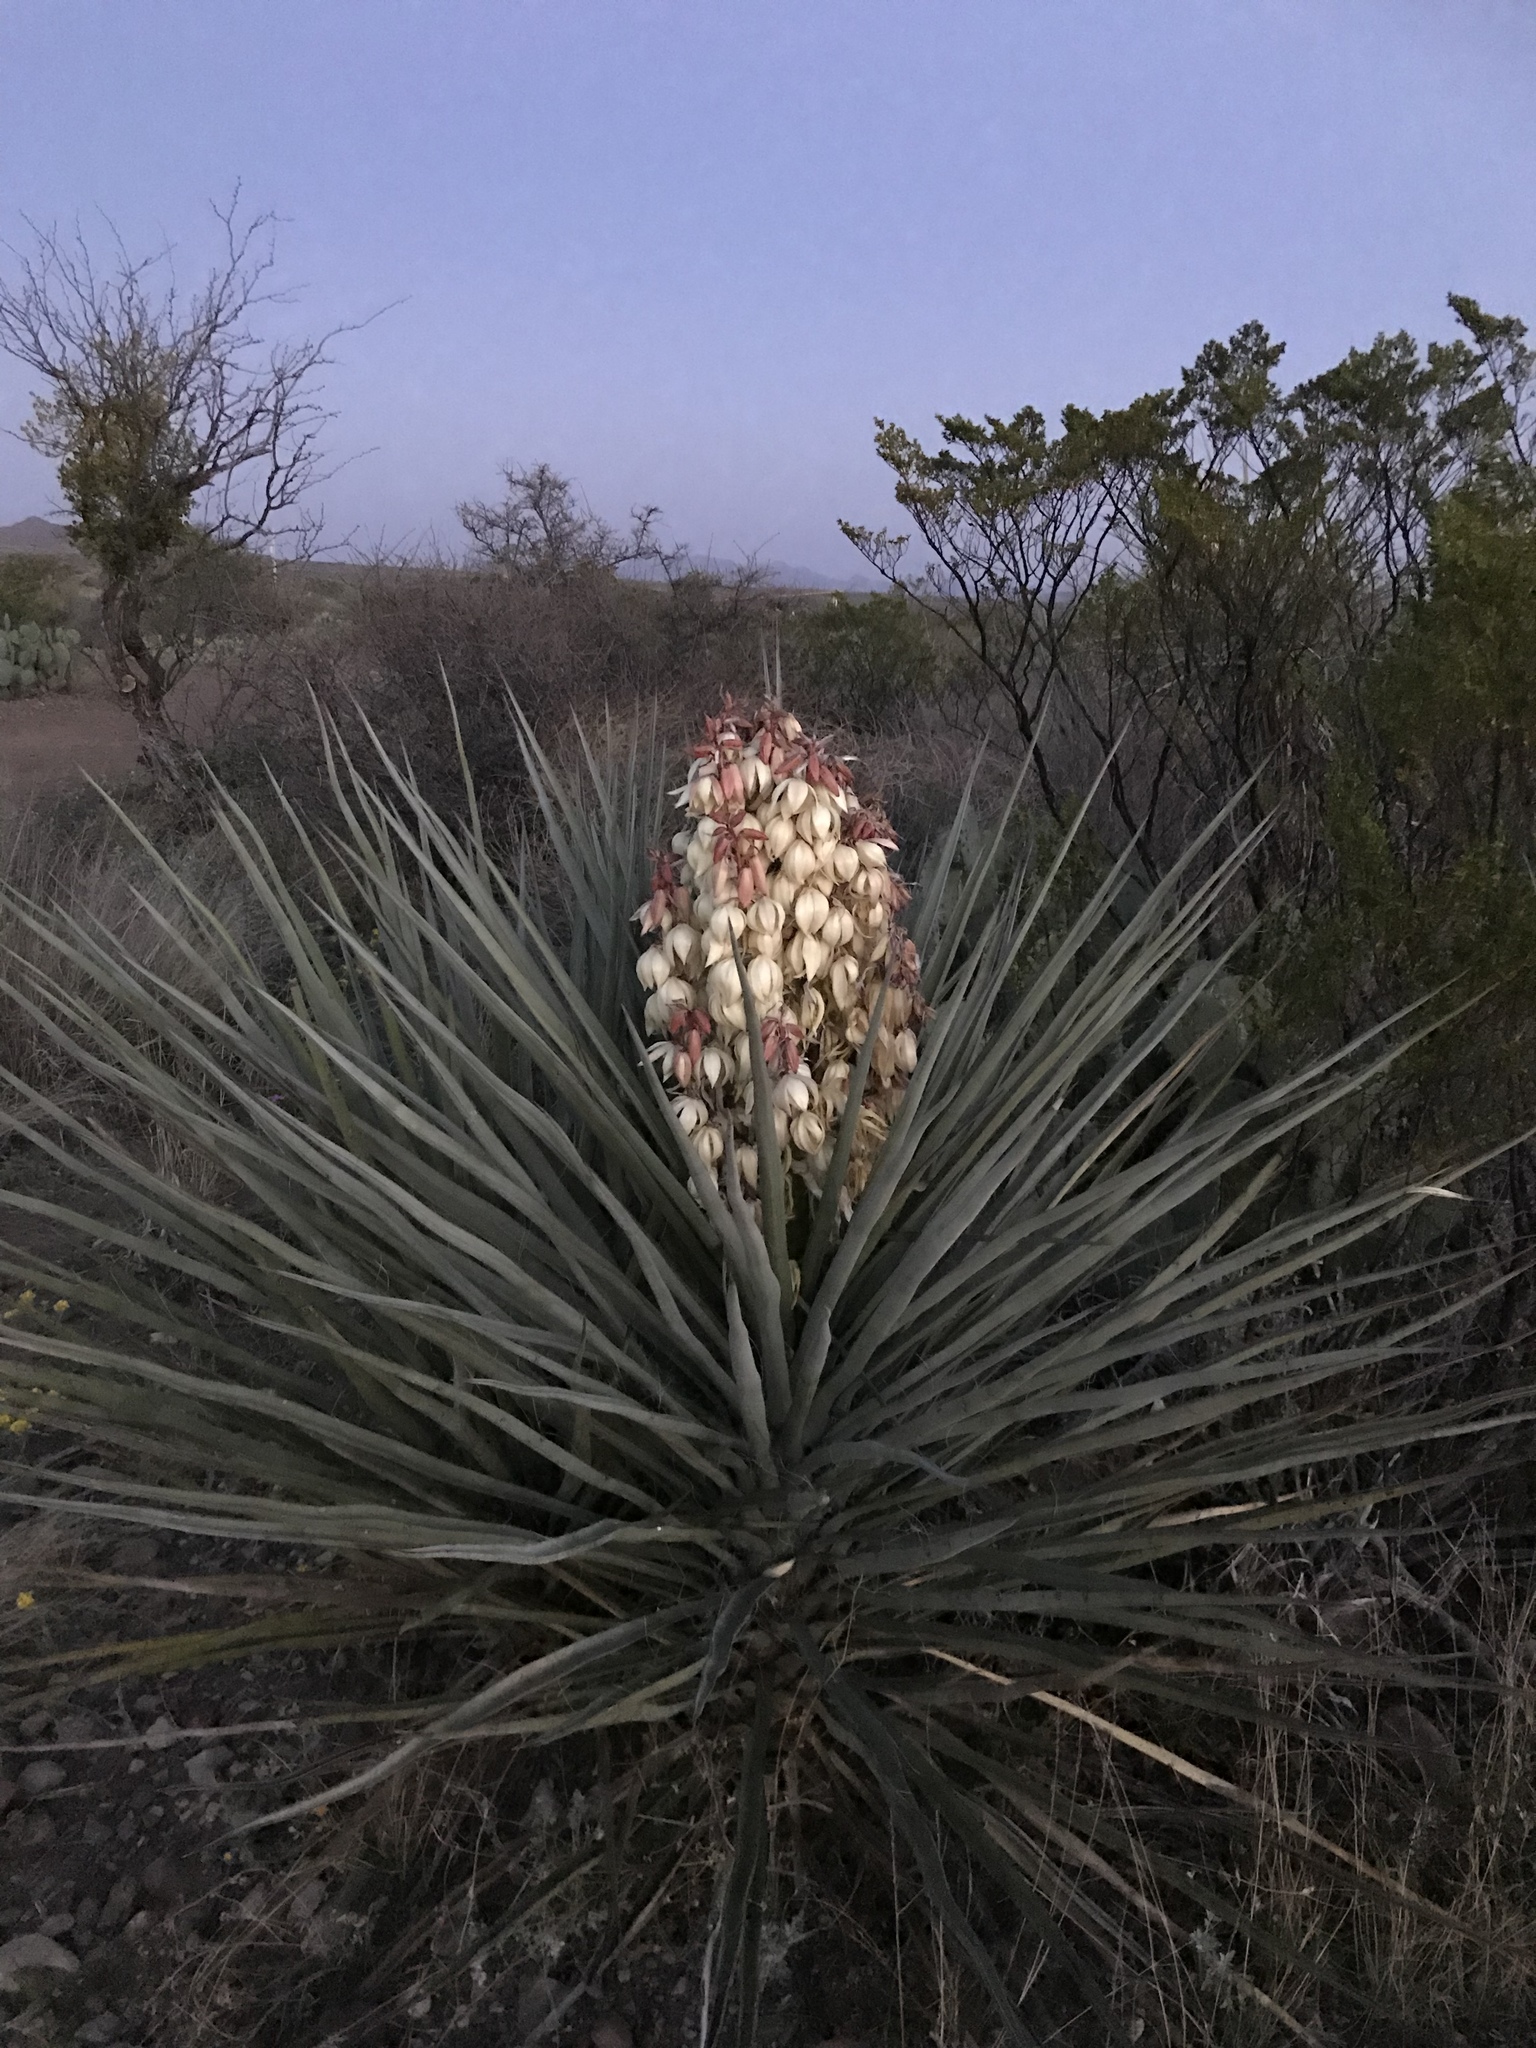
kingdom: Plantae
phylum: Tracheophyta
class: Liliopsida
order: Asparagales
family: Asparagaceae
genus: Yucca
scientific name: Yucca treculiana
